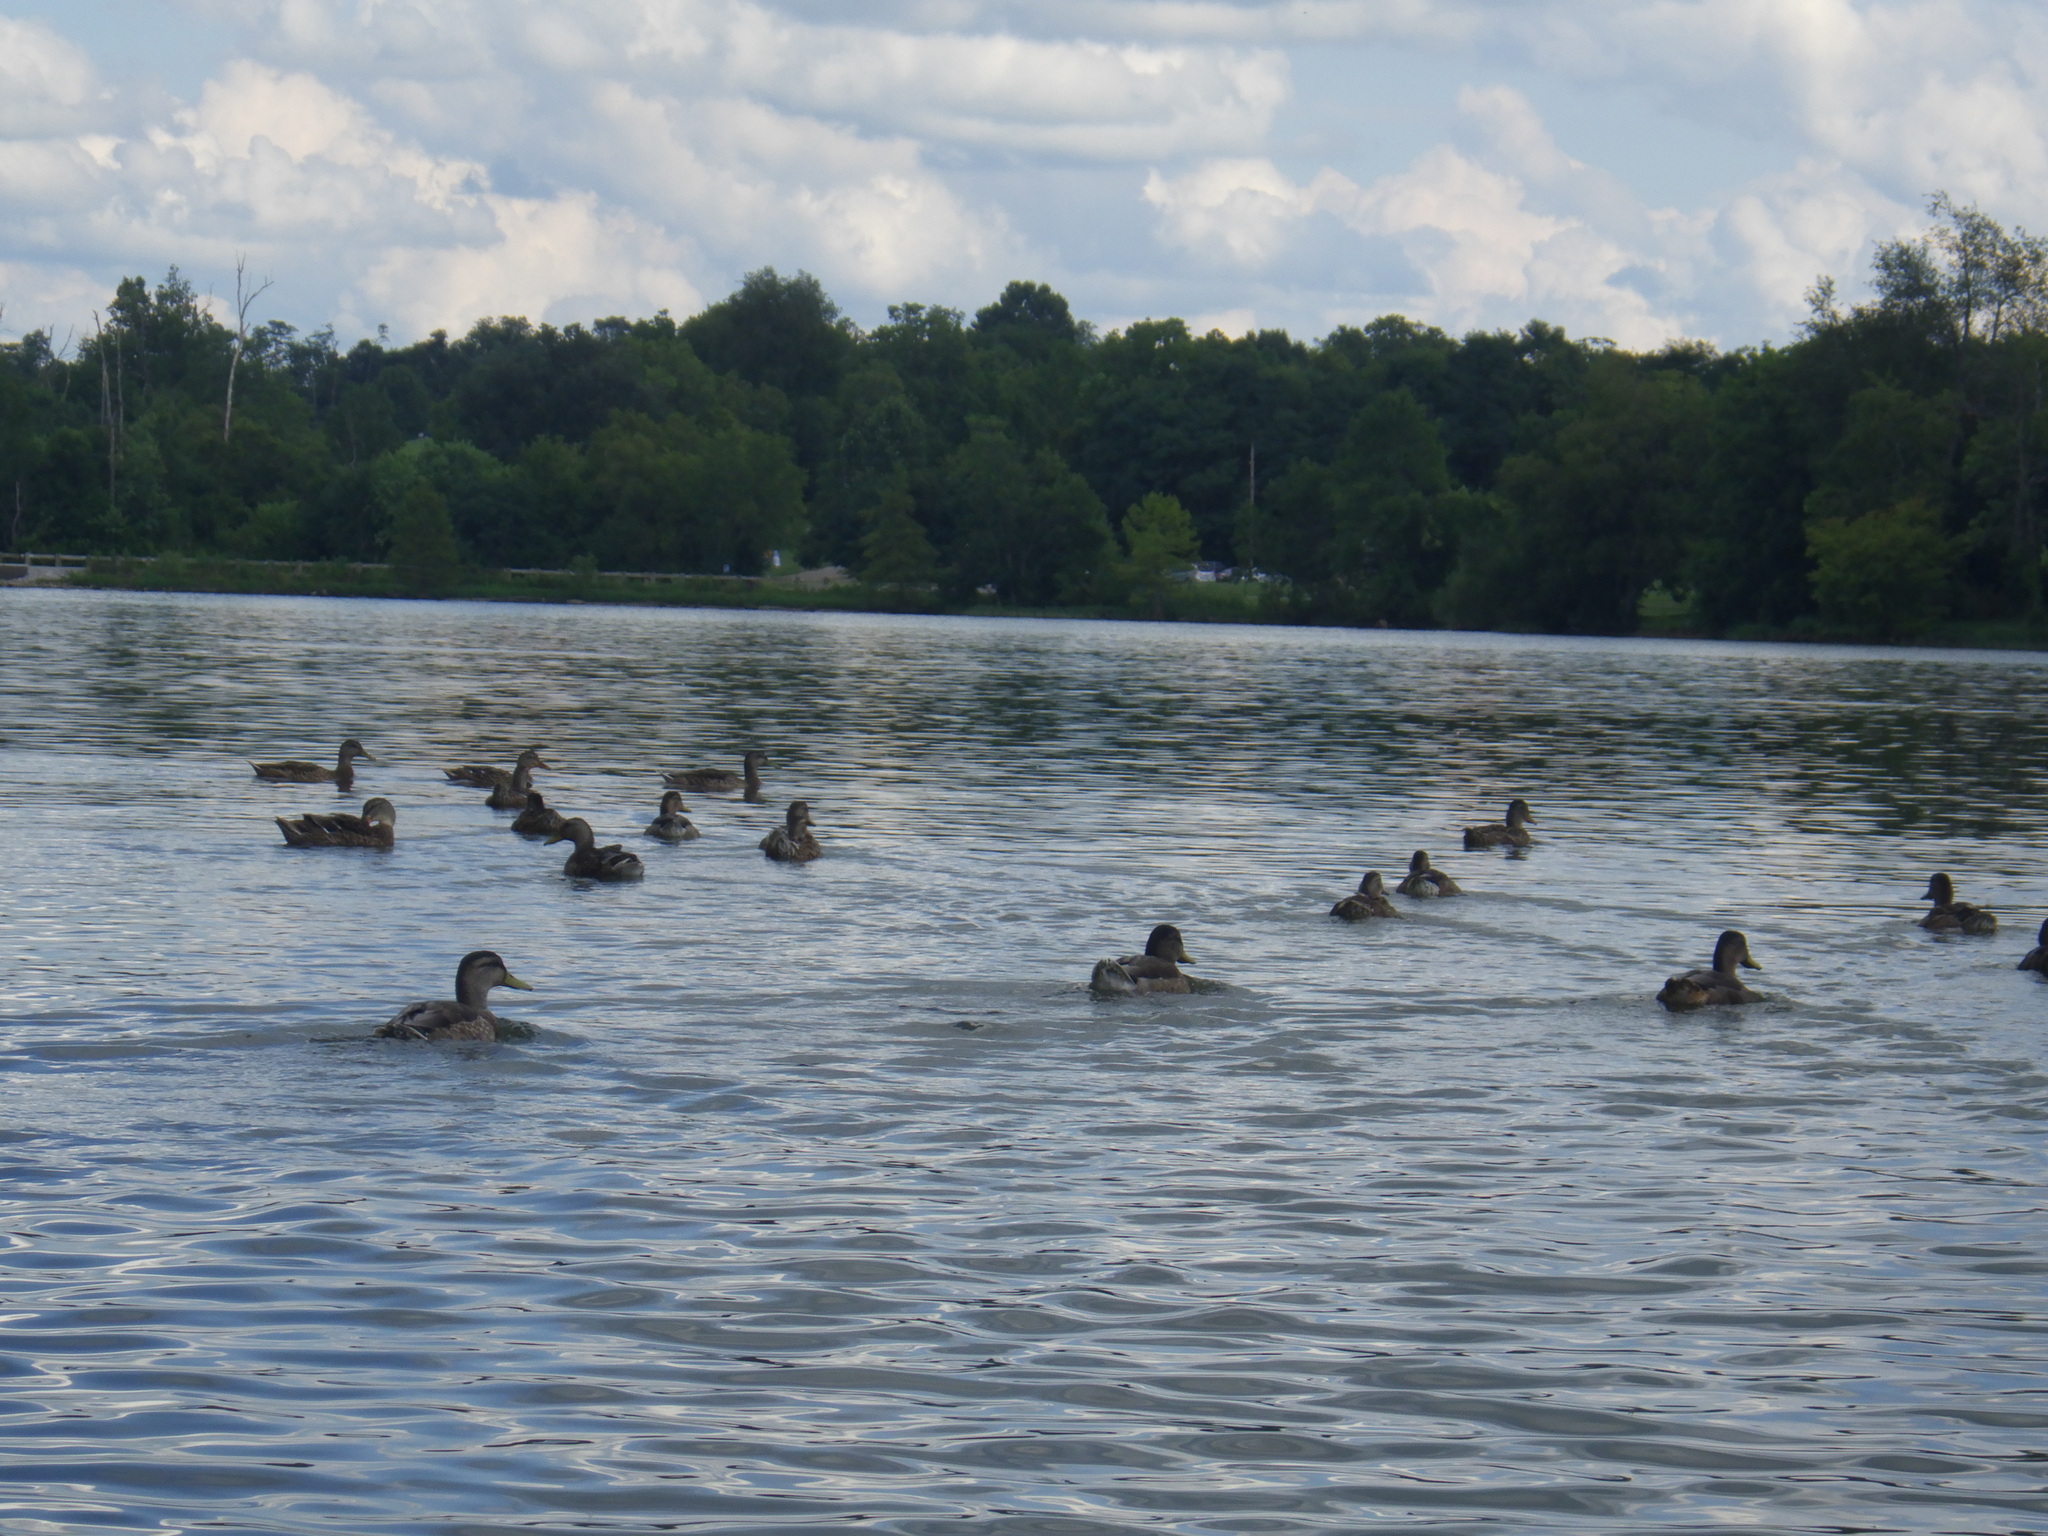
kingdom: Animalia
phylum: Chordata
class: Aves
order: Anseriformes
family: Anatidae
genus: Anas
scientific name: Anas platyrhynchos
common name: Mallard
